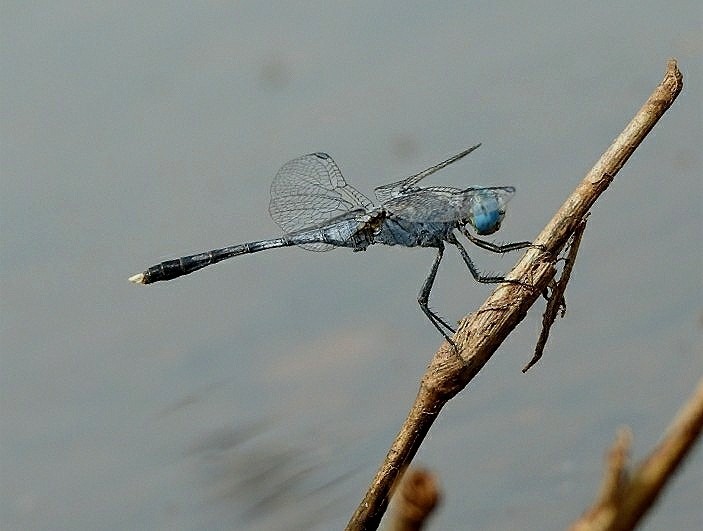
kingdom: Animalia
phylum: Arthropoda
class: Insecta
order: Odonata
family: Libellulidae
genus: Diplacodes
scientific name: Diplacodes trivialis
